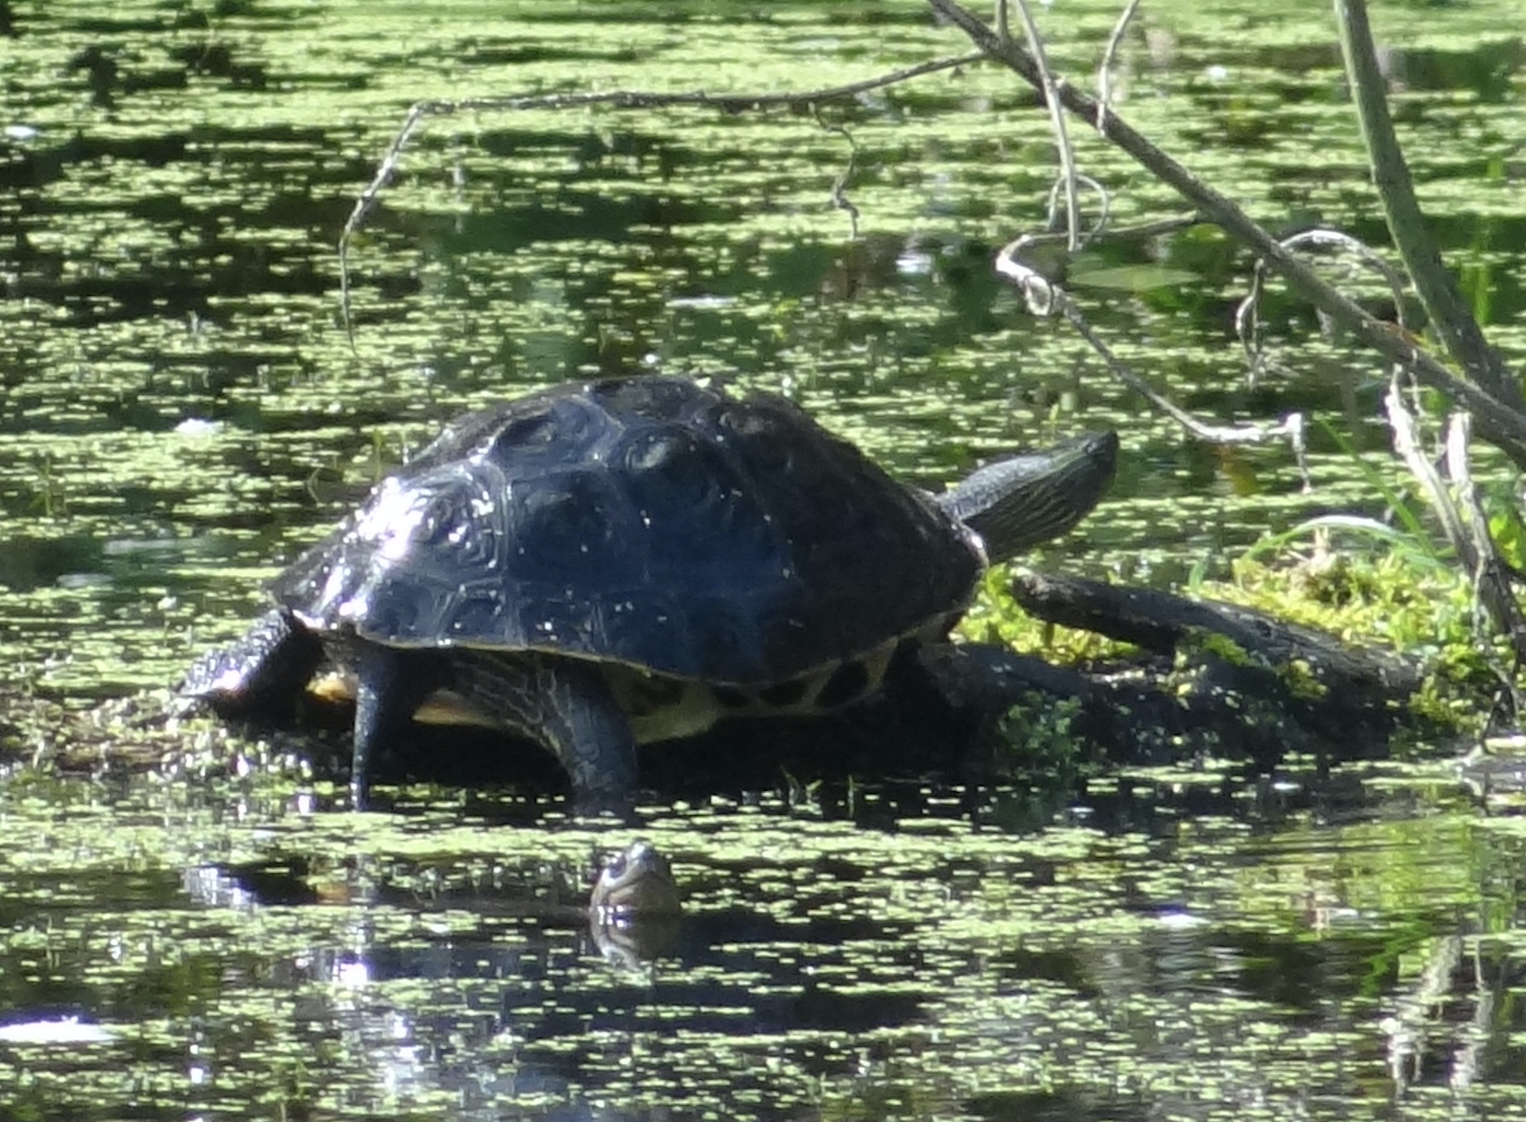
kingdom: Animalia
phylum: Chordata
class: Testudines
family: Geoemydidae
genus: Mauremys
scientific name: Mauremys sinensis
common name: Chinese stripe-necked turtle
